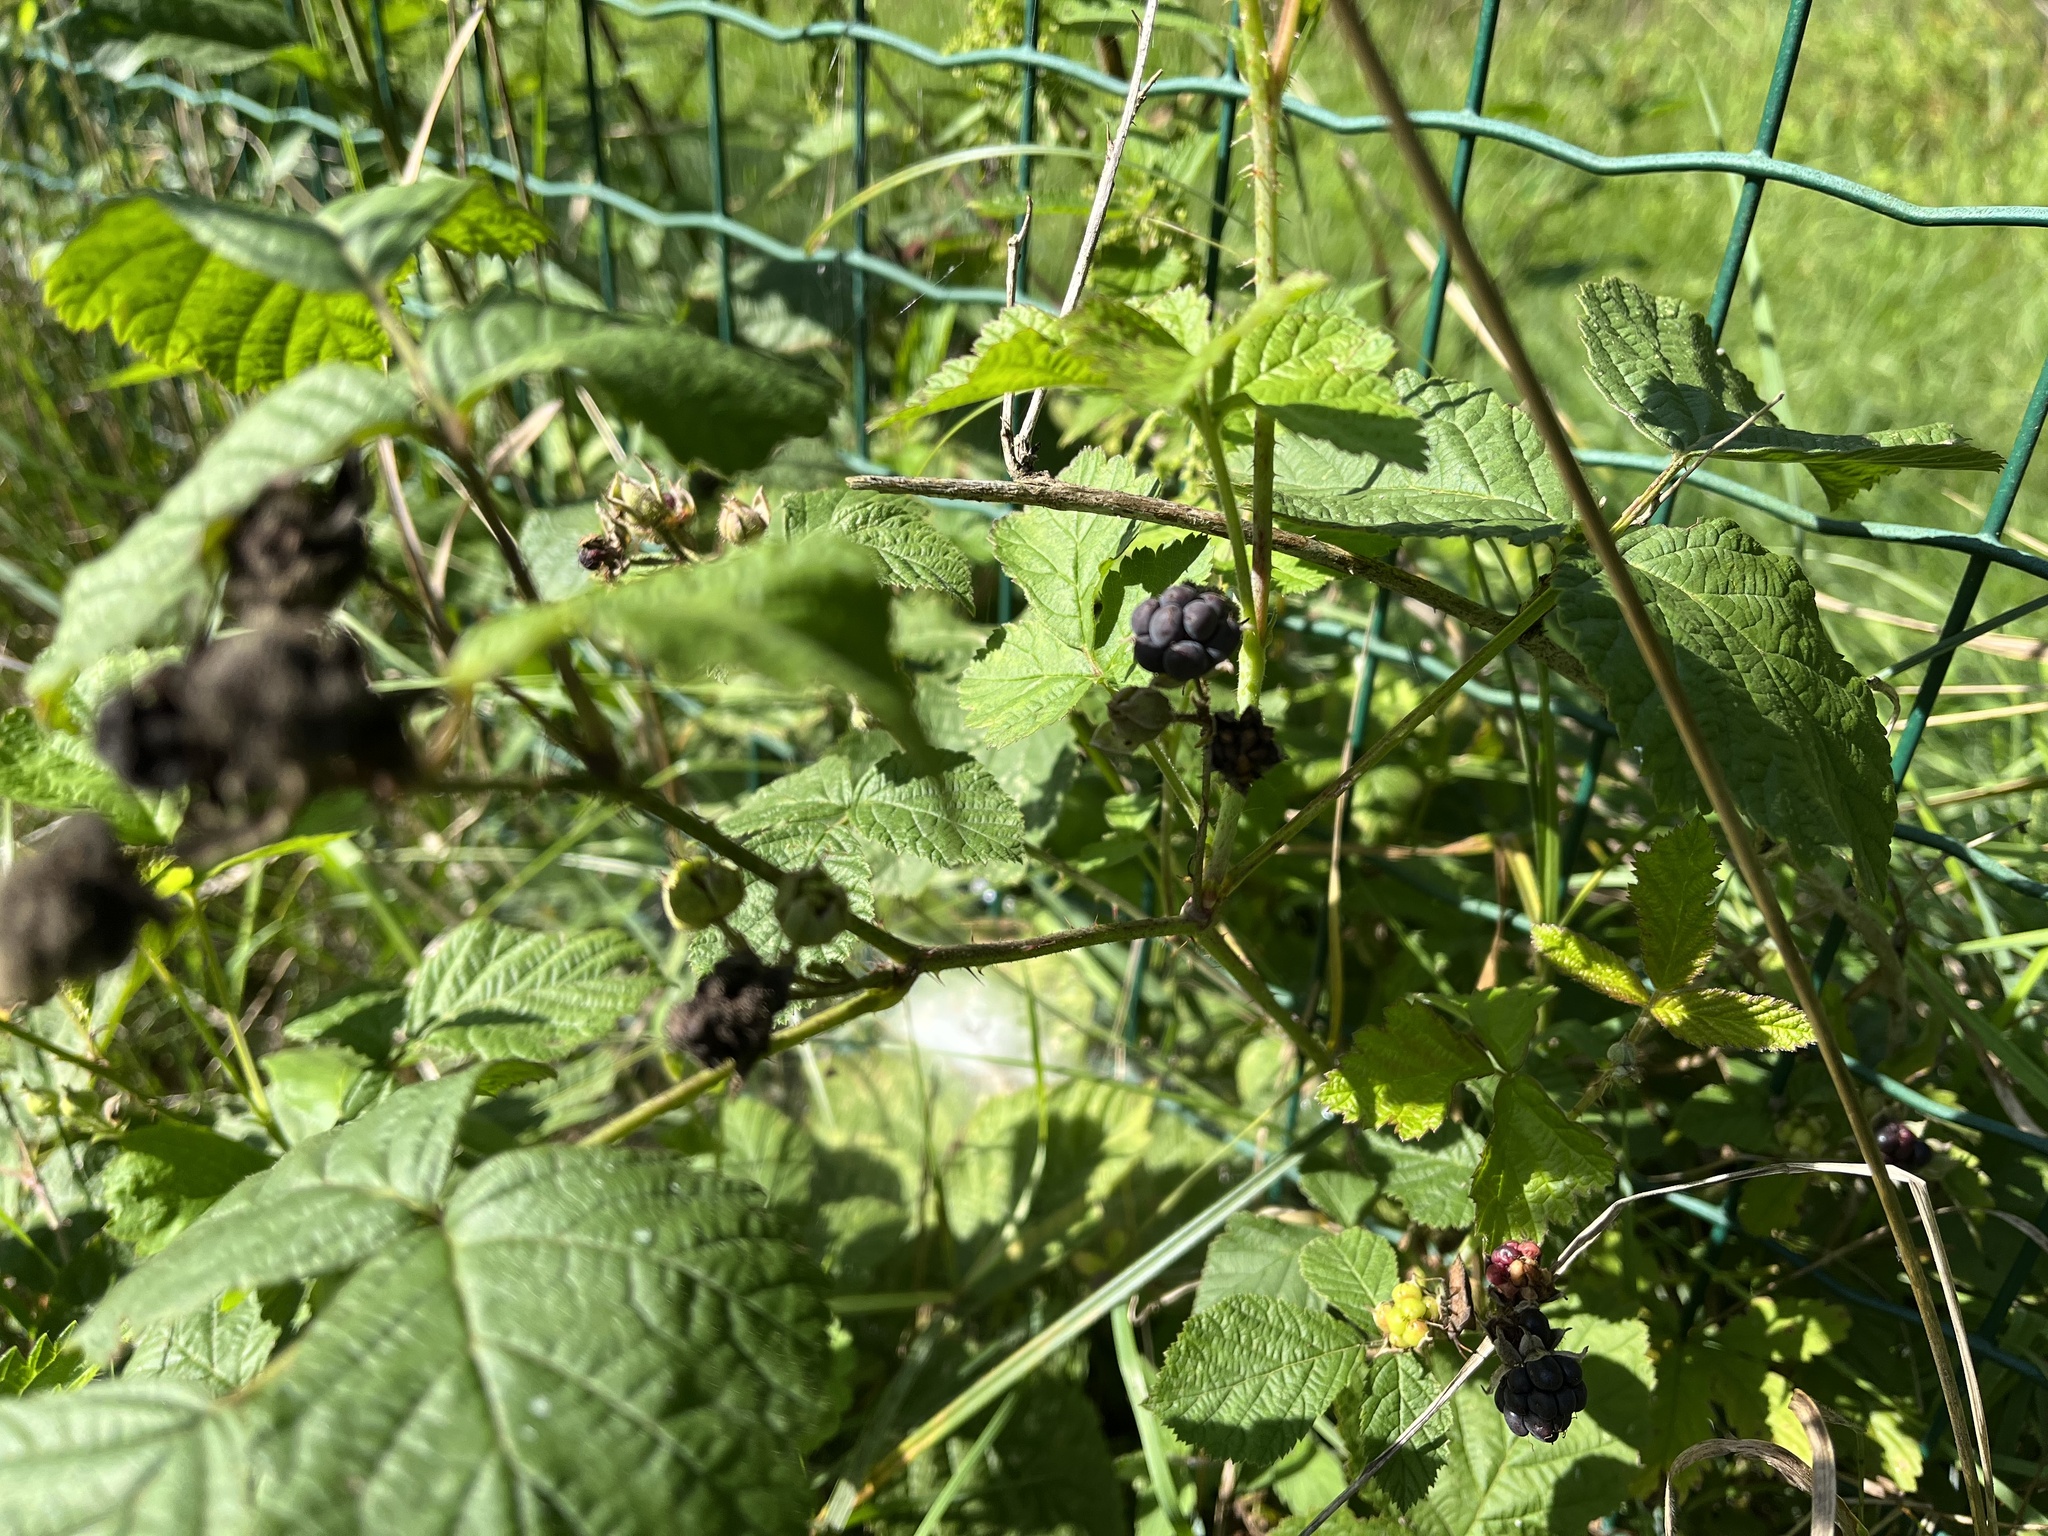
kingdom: Plantae
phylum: Tracheophyta
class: Magnoliopsida
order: Rosales
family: Rosaceae
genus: Rubus
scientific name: Rubus caesius
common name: Dewberry
